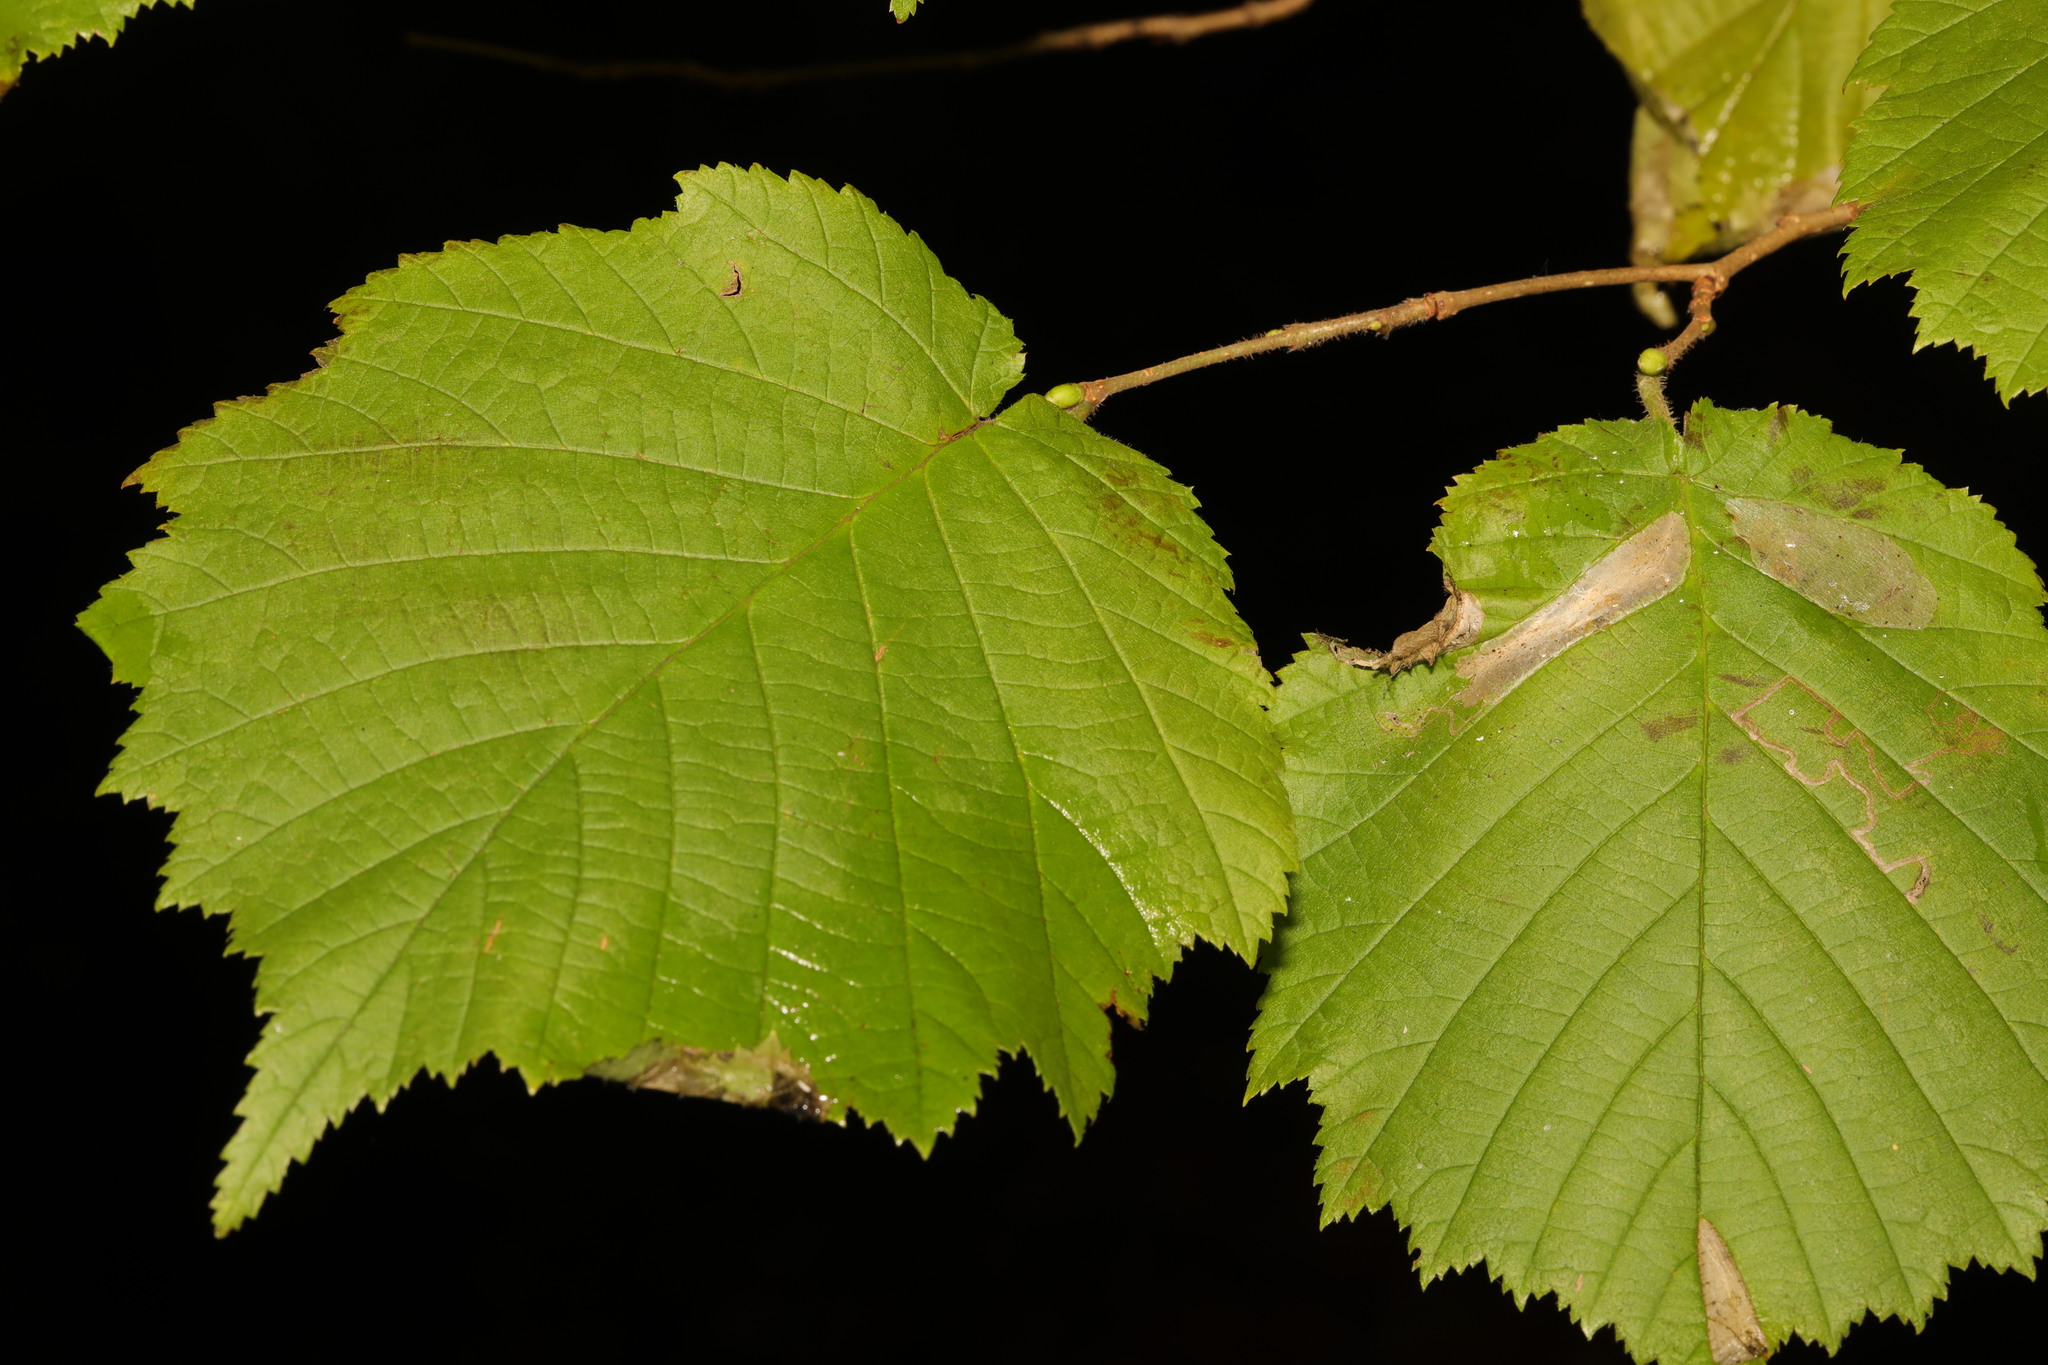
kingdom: Plantae
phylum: Tracheophyta
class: Magnoliopsida
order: Fagales
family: Betulaceae
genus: Corylus
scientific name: Corylus avellana
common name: European hazel
